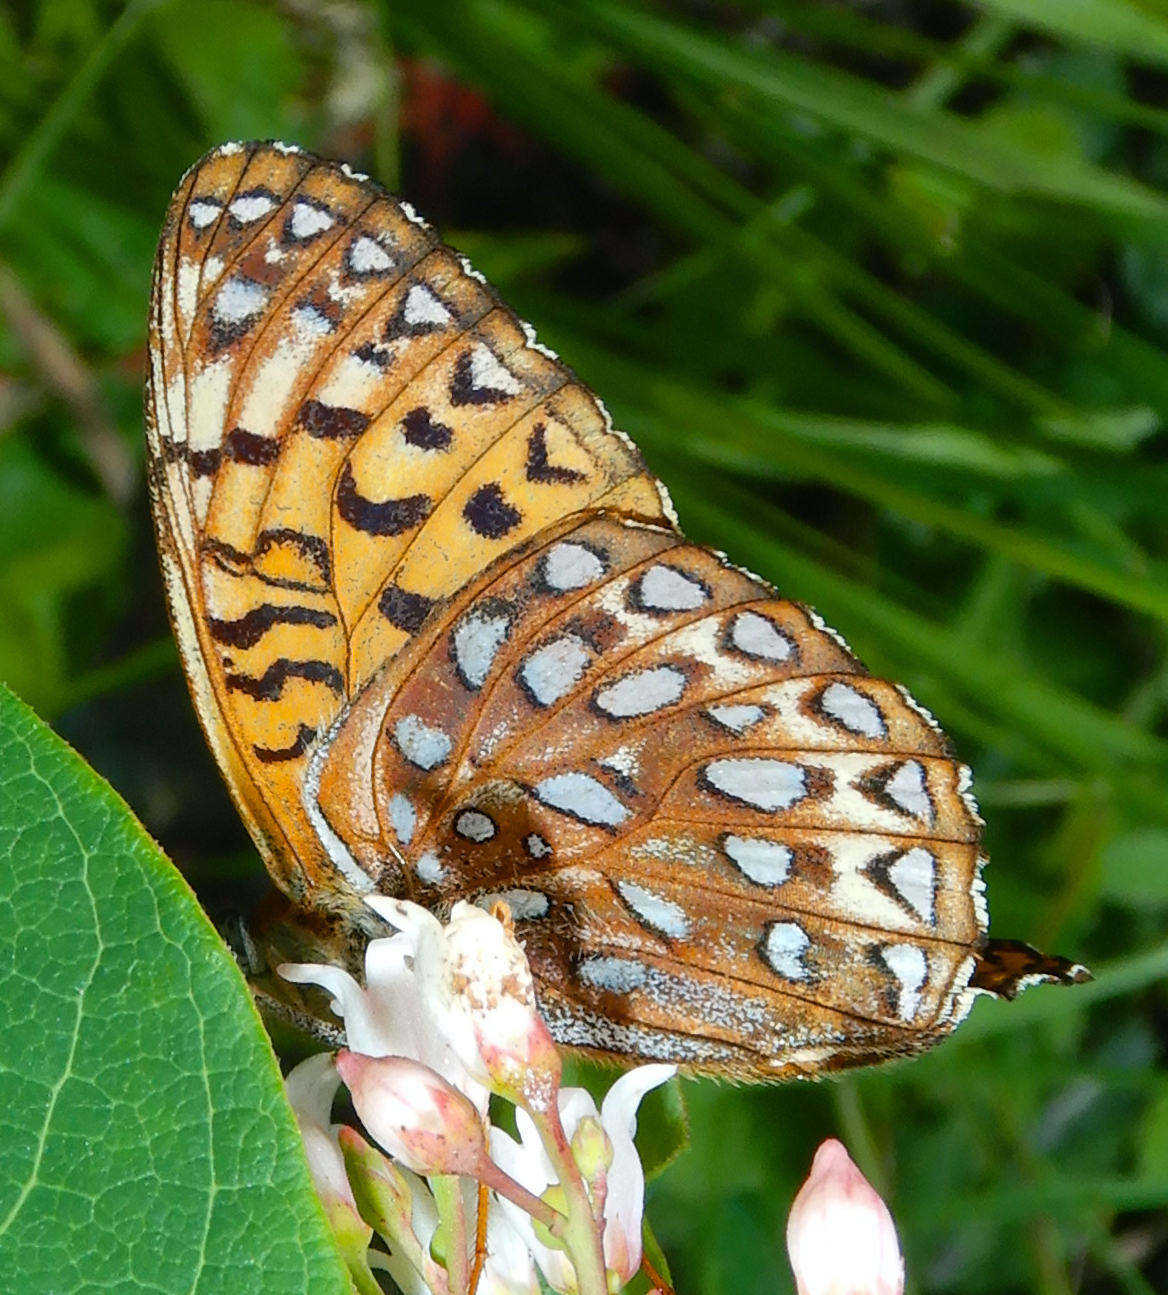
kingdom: Animalia
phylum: Arthropoda
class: Insecta
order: Lepidoptera
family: Nymphalidae
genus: Speyeria
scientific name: Speyeria atlantis
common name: Atlantis fritillary
